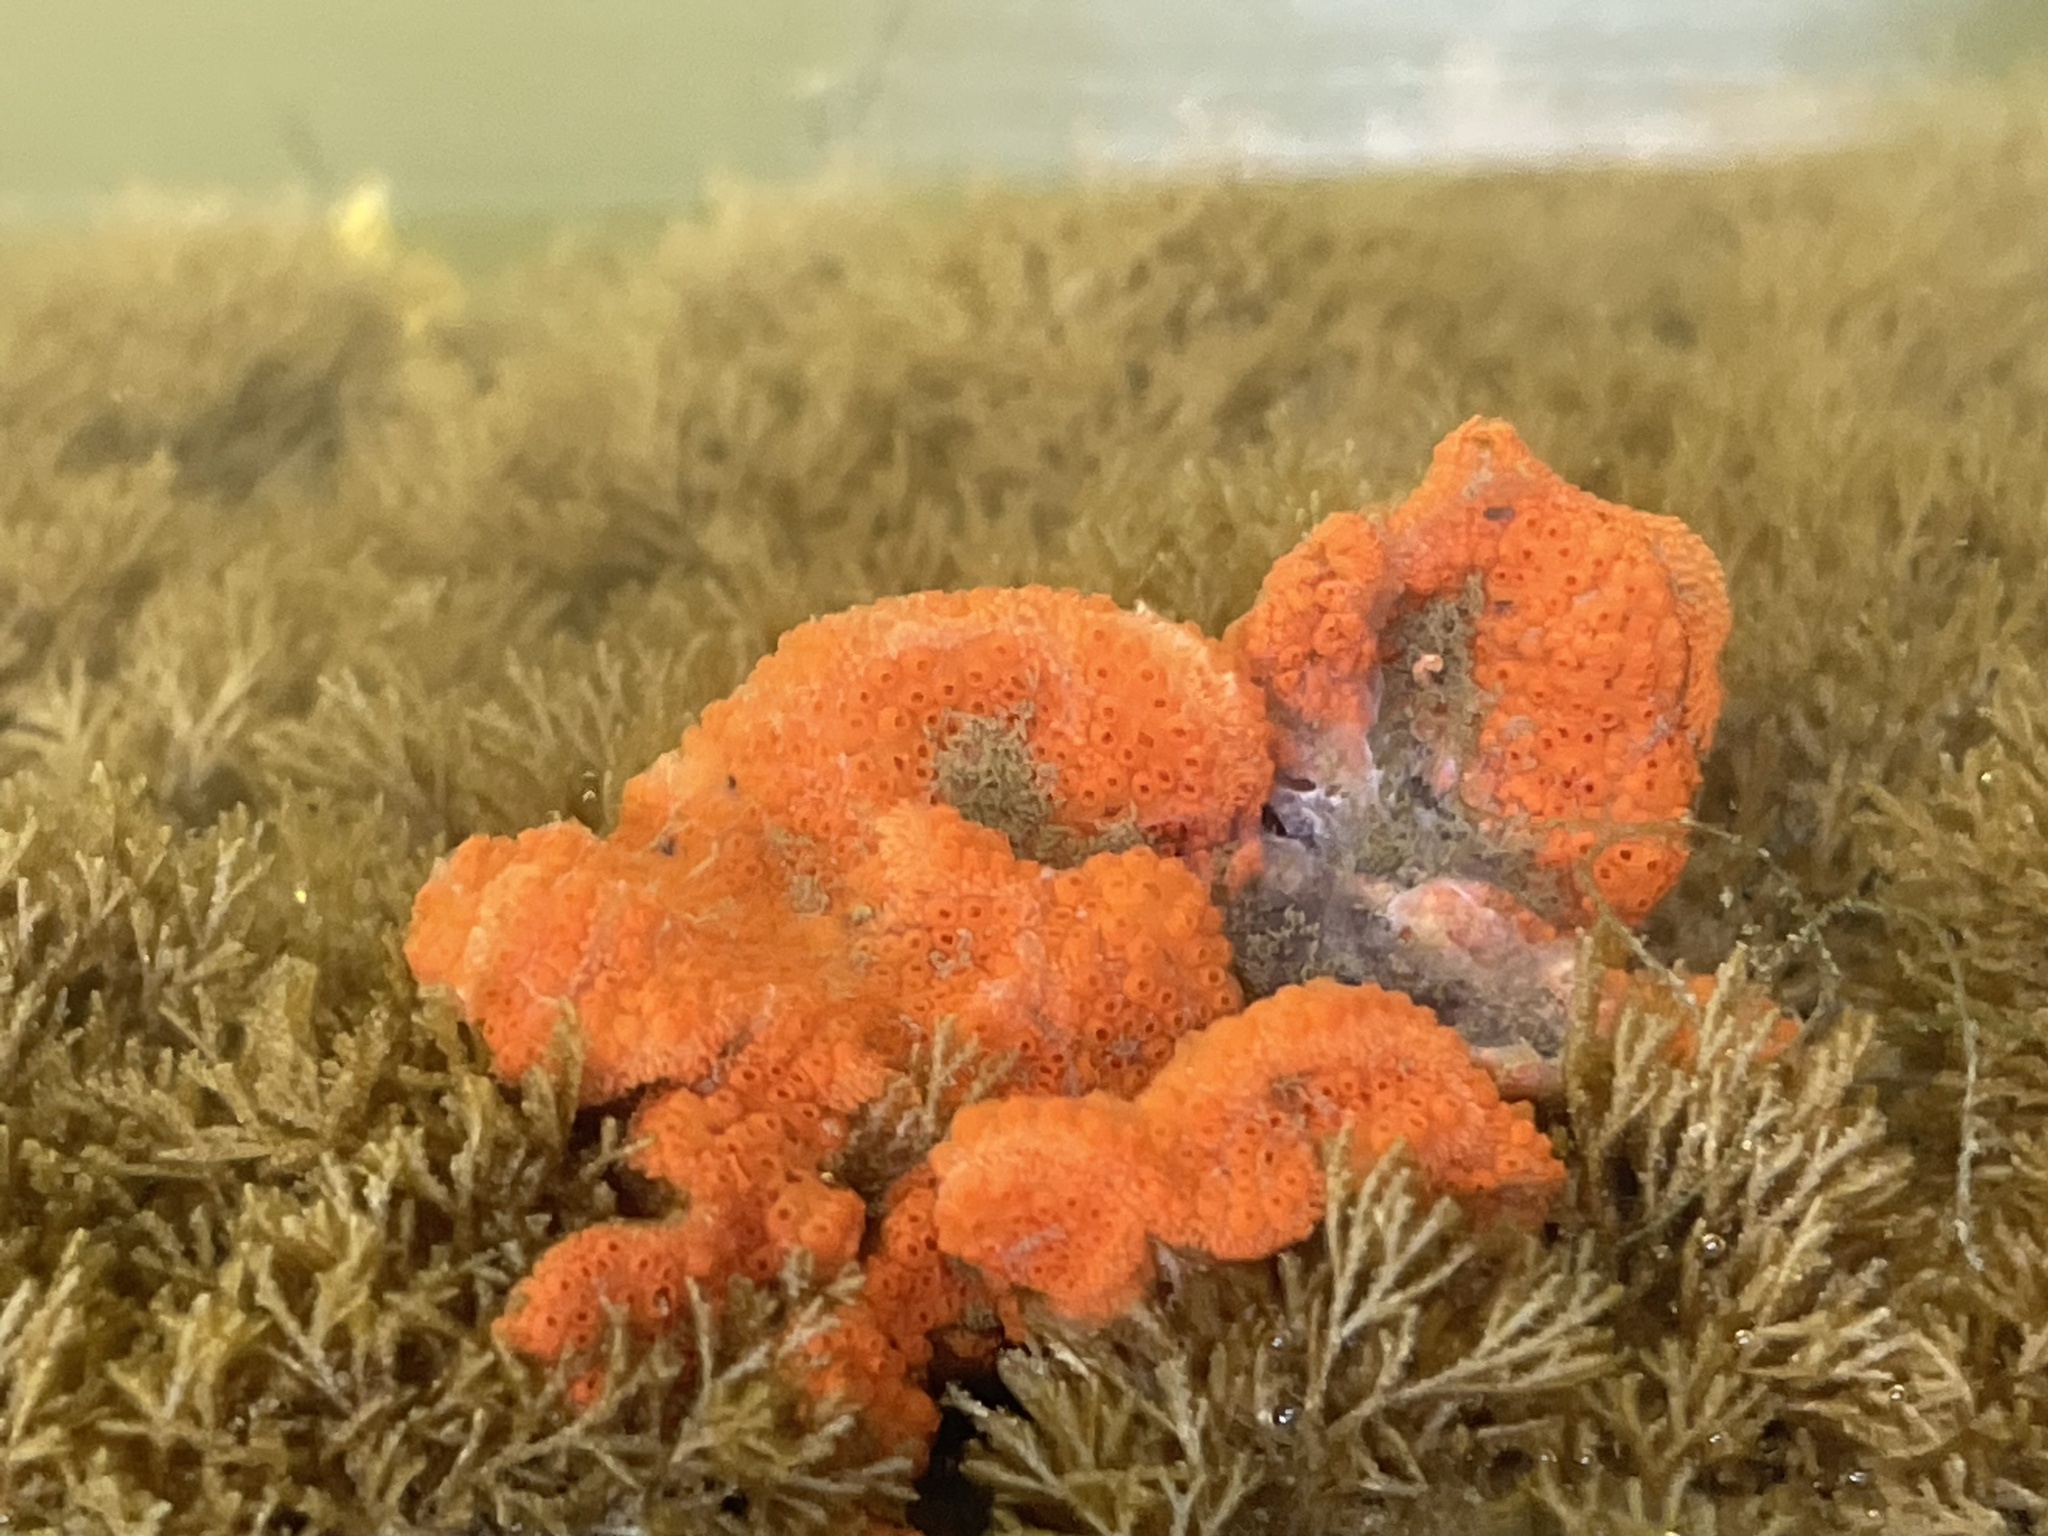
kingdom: Animalia
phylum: Chordata
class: Ascidiacea
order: Stolidobranchia
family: Styelidae
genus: Botrylloides
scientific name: Botrylloides violaceus
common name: Colonial sea squirt
